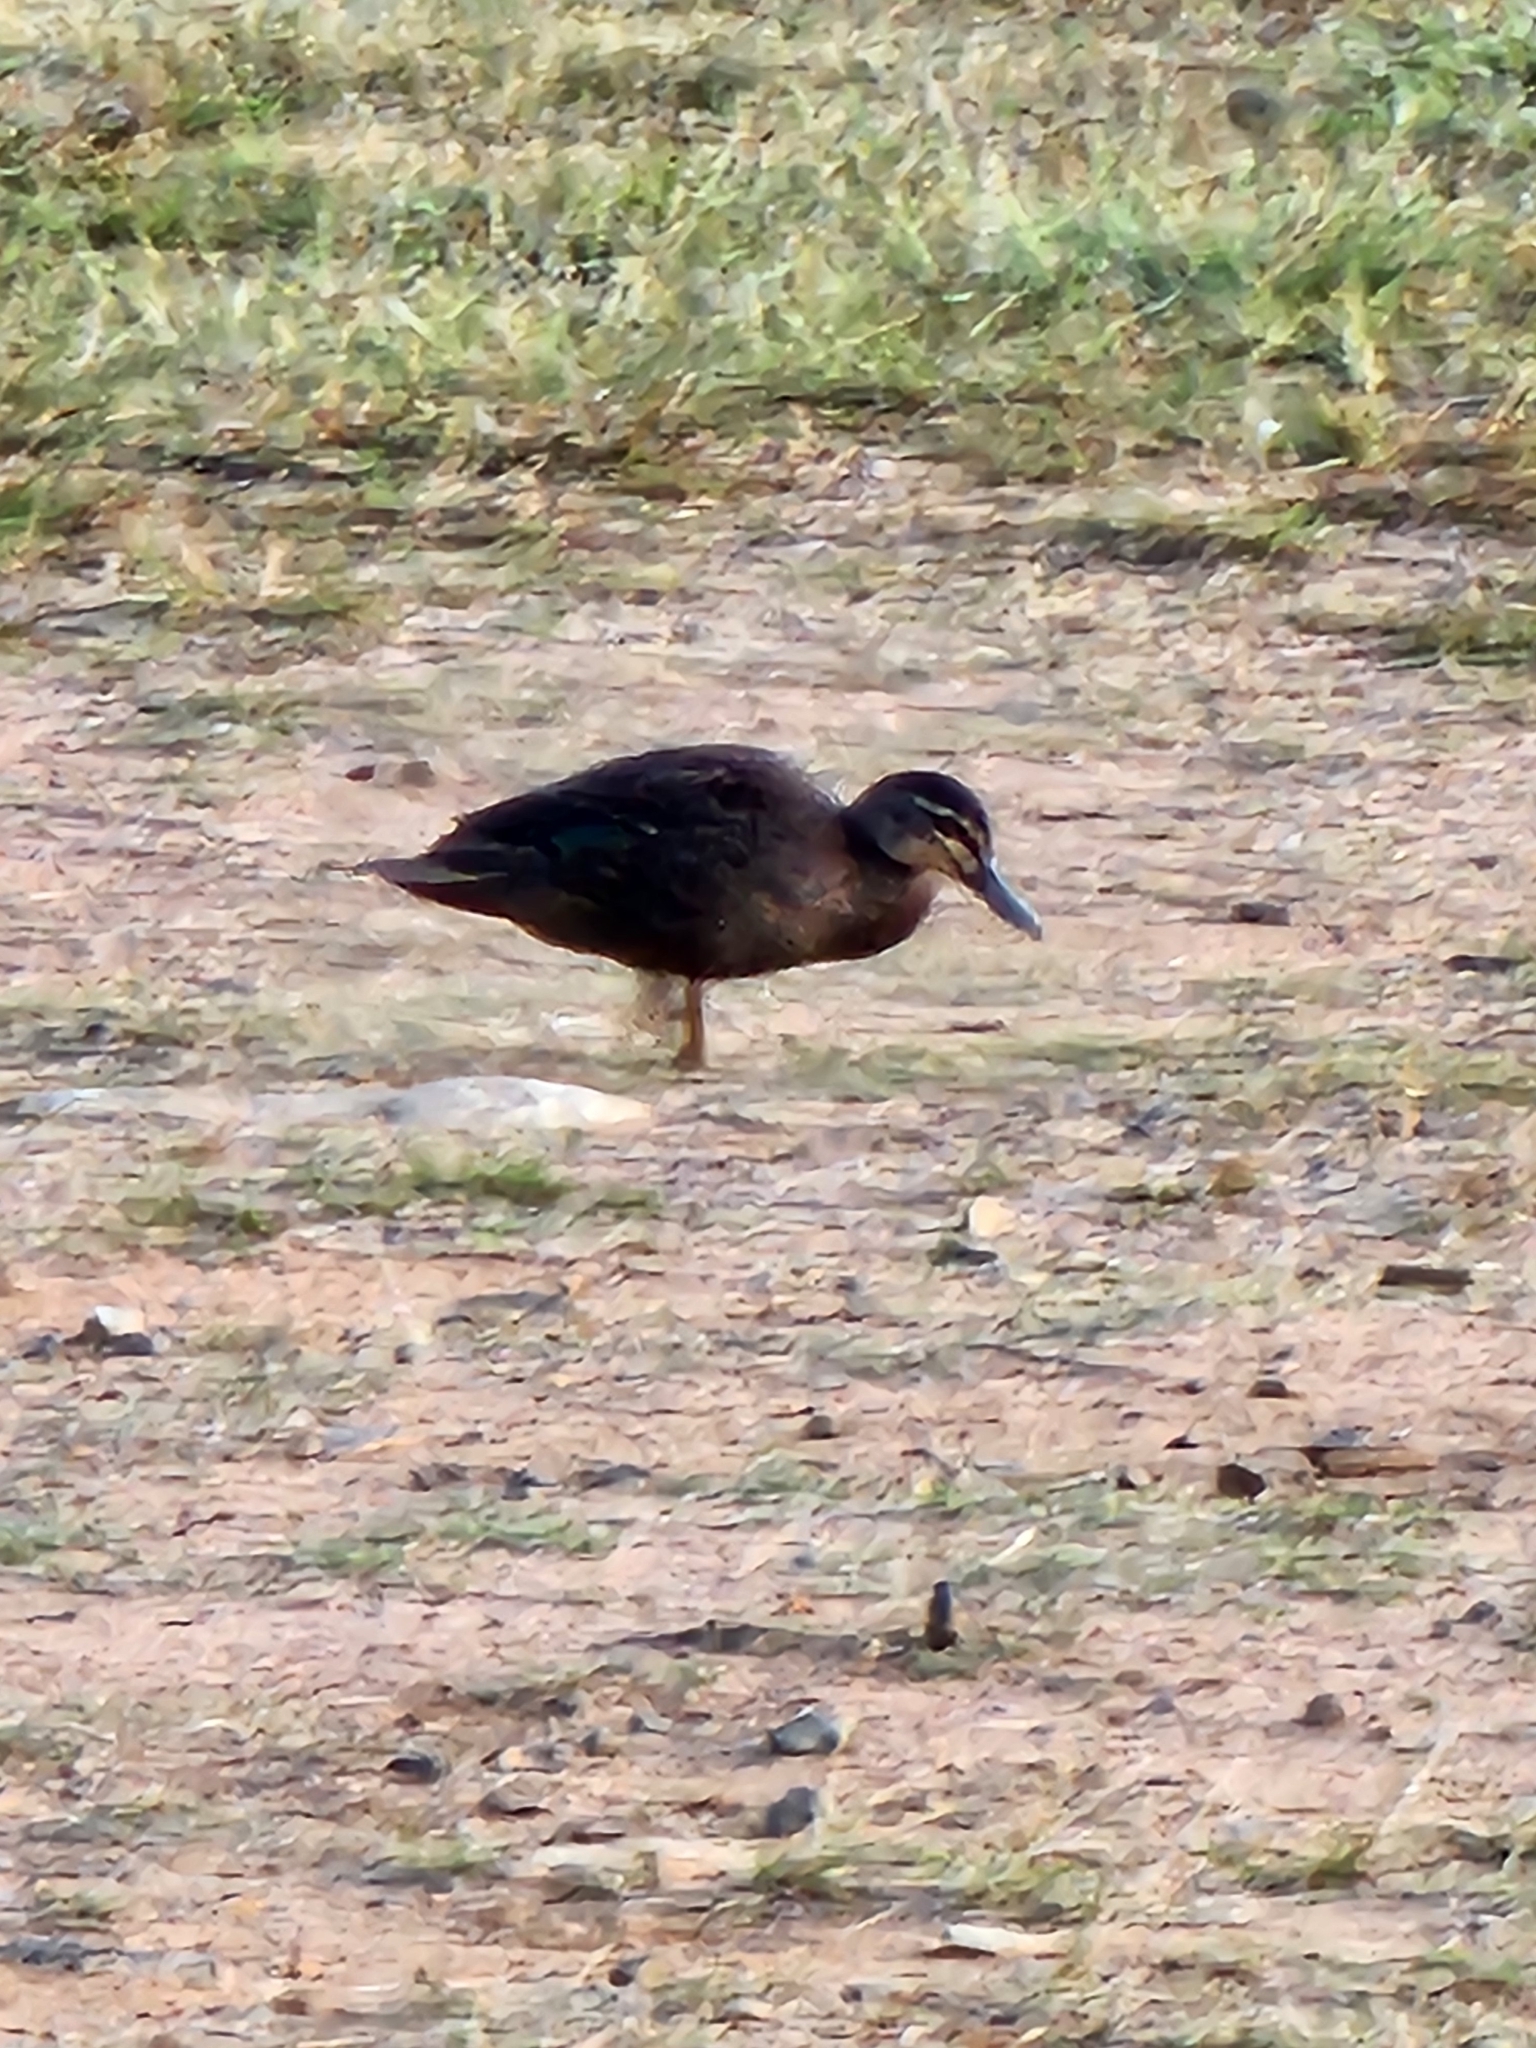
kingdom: Animalia
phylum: Chordata
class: Aves
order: Anseriformes
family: Anatidae
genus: Anas
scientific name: Anas superciliosa
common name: Pacific black duck
